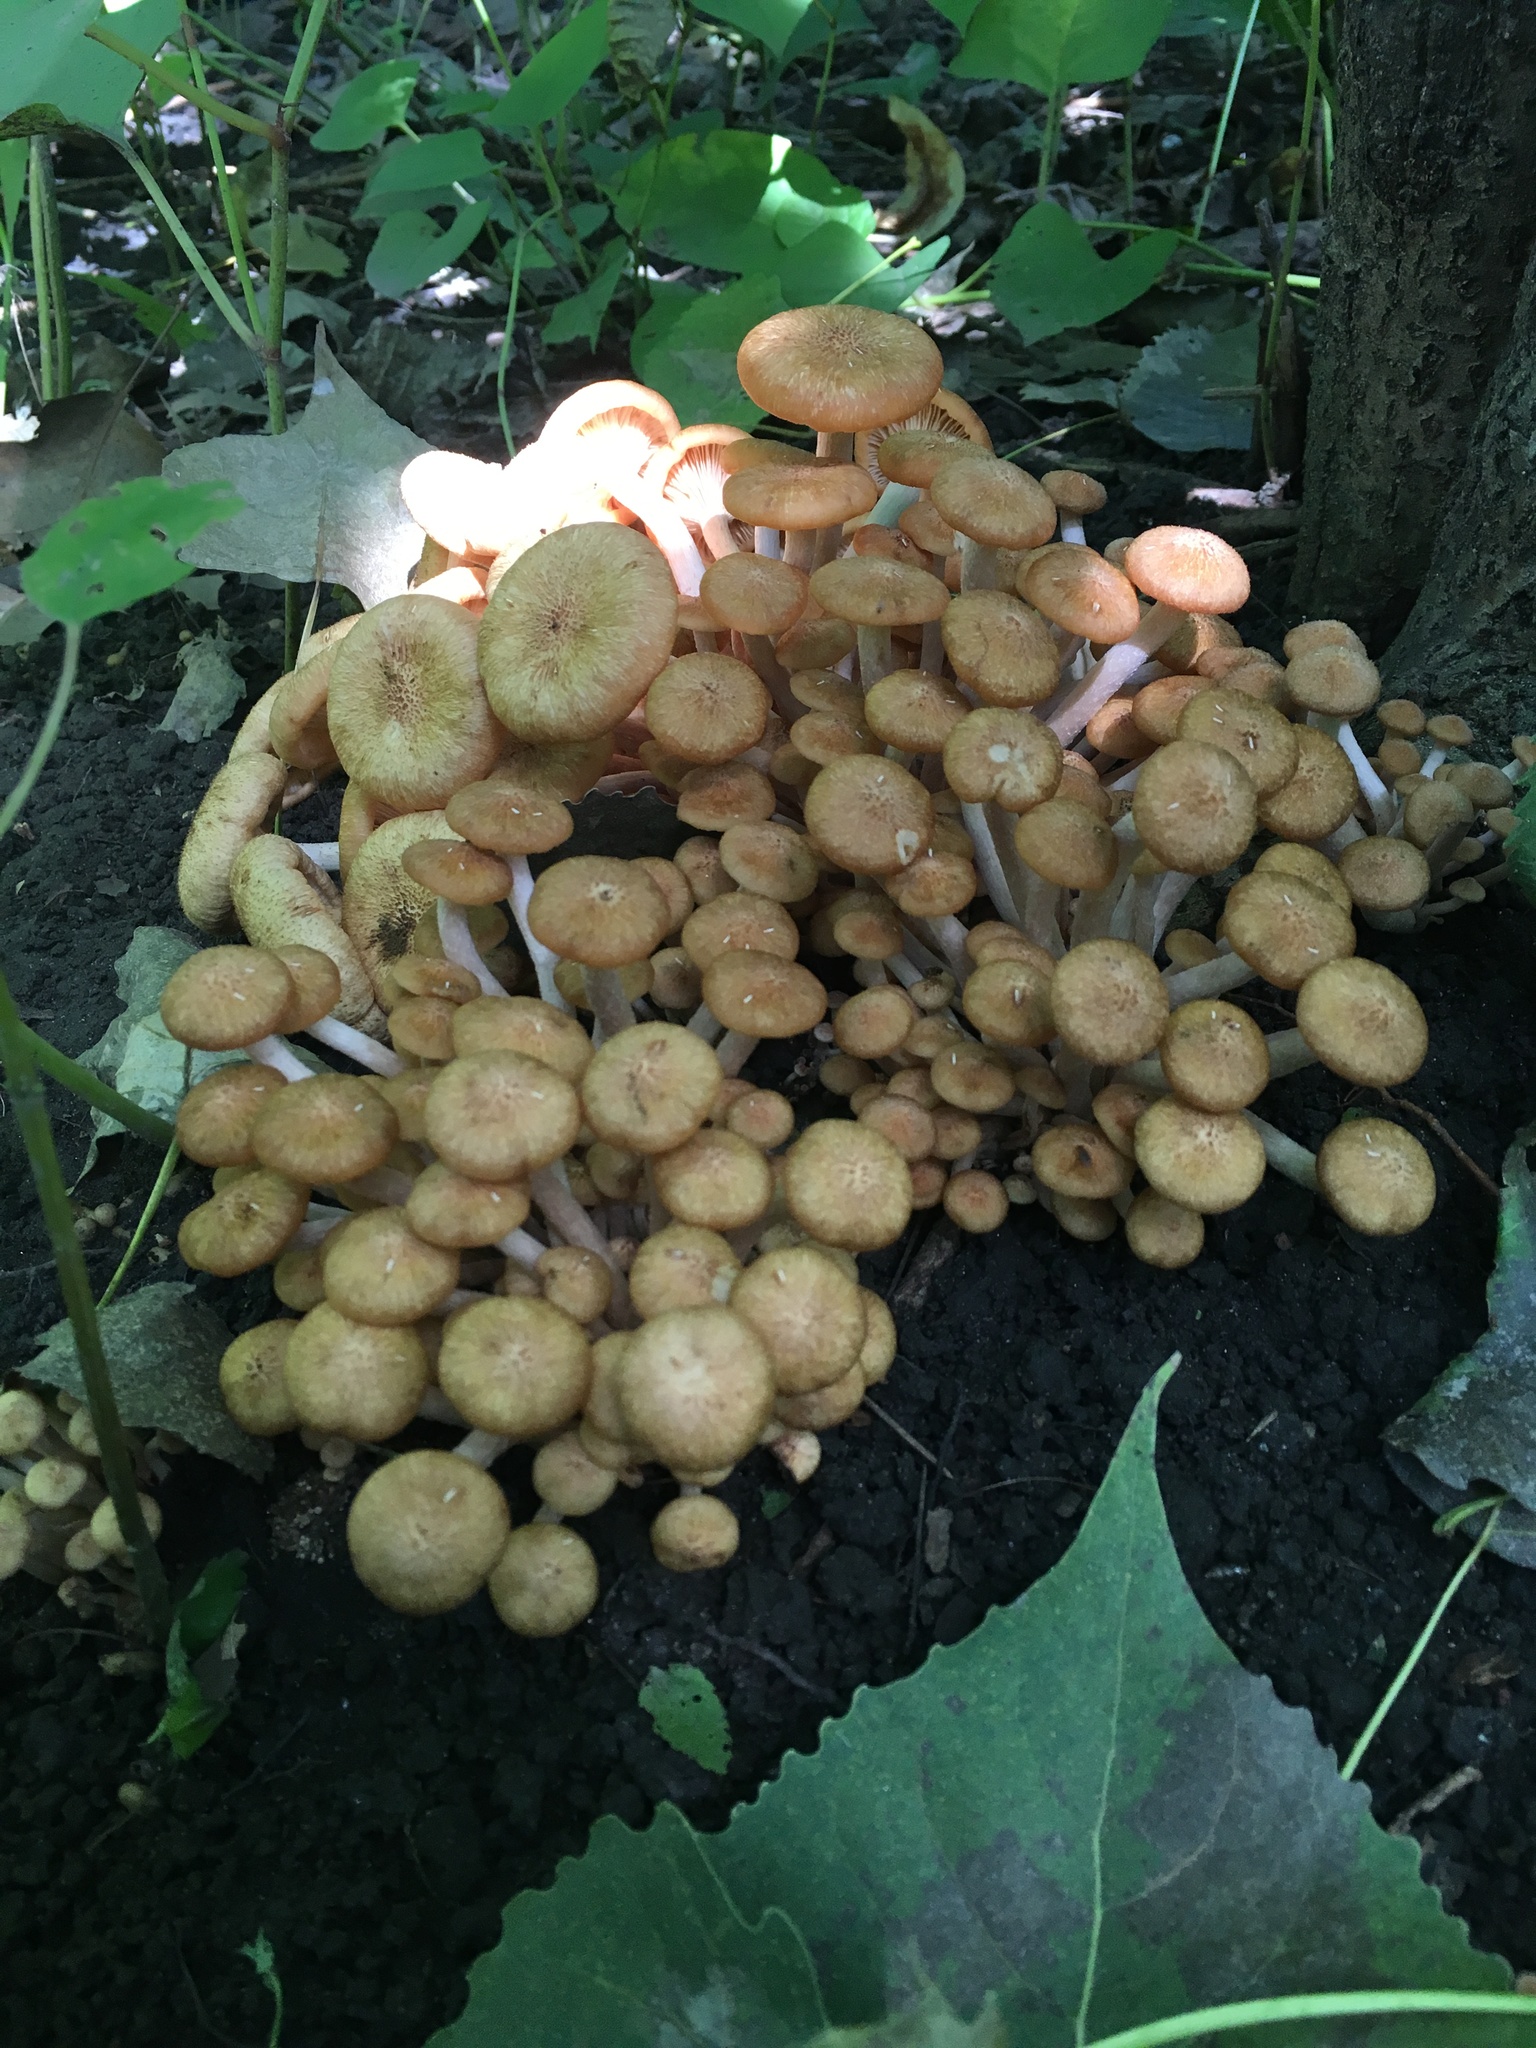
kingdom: Fungi
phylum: Basidiomycota
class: Agaricomycetes
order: Agaricales
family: Physalacriaceae
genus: Desarmillaria
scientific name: Desarmillaria caespitosa
